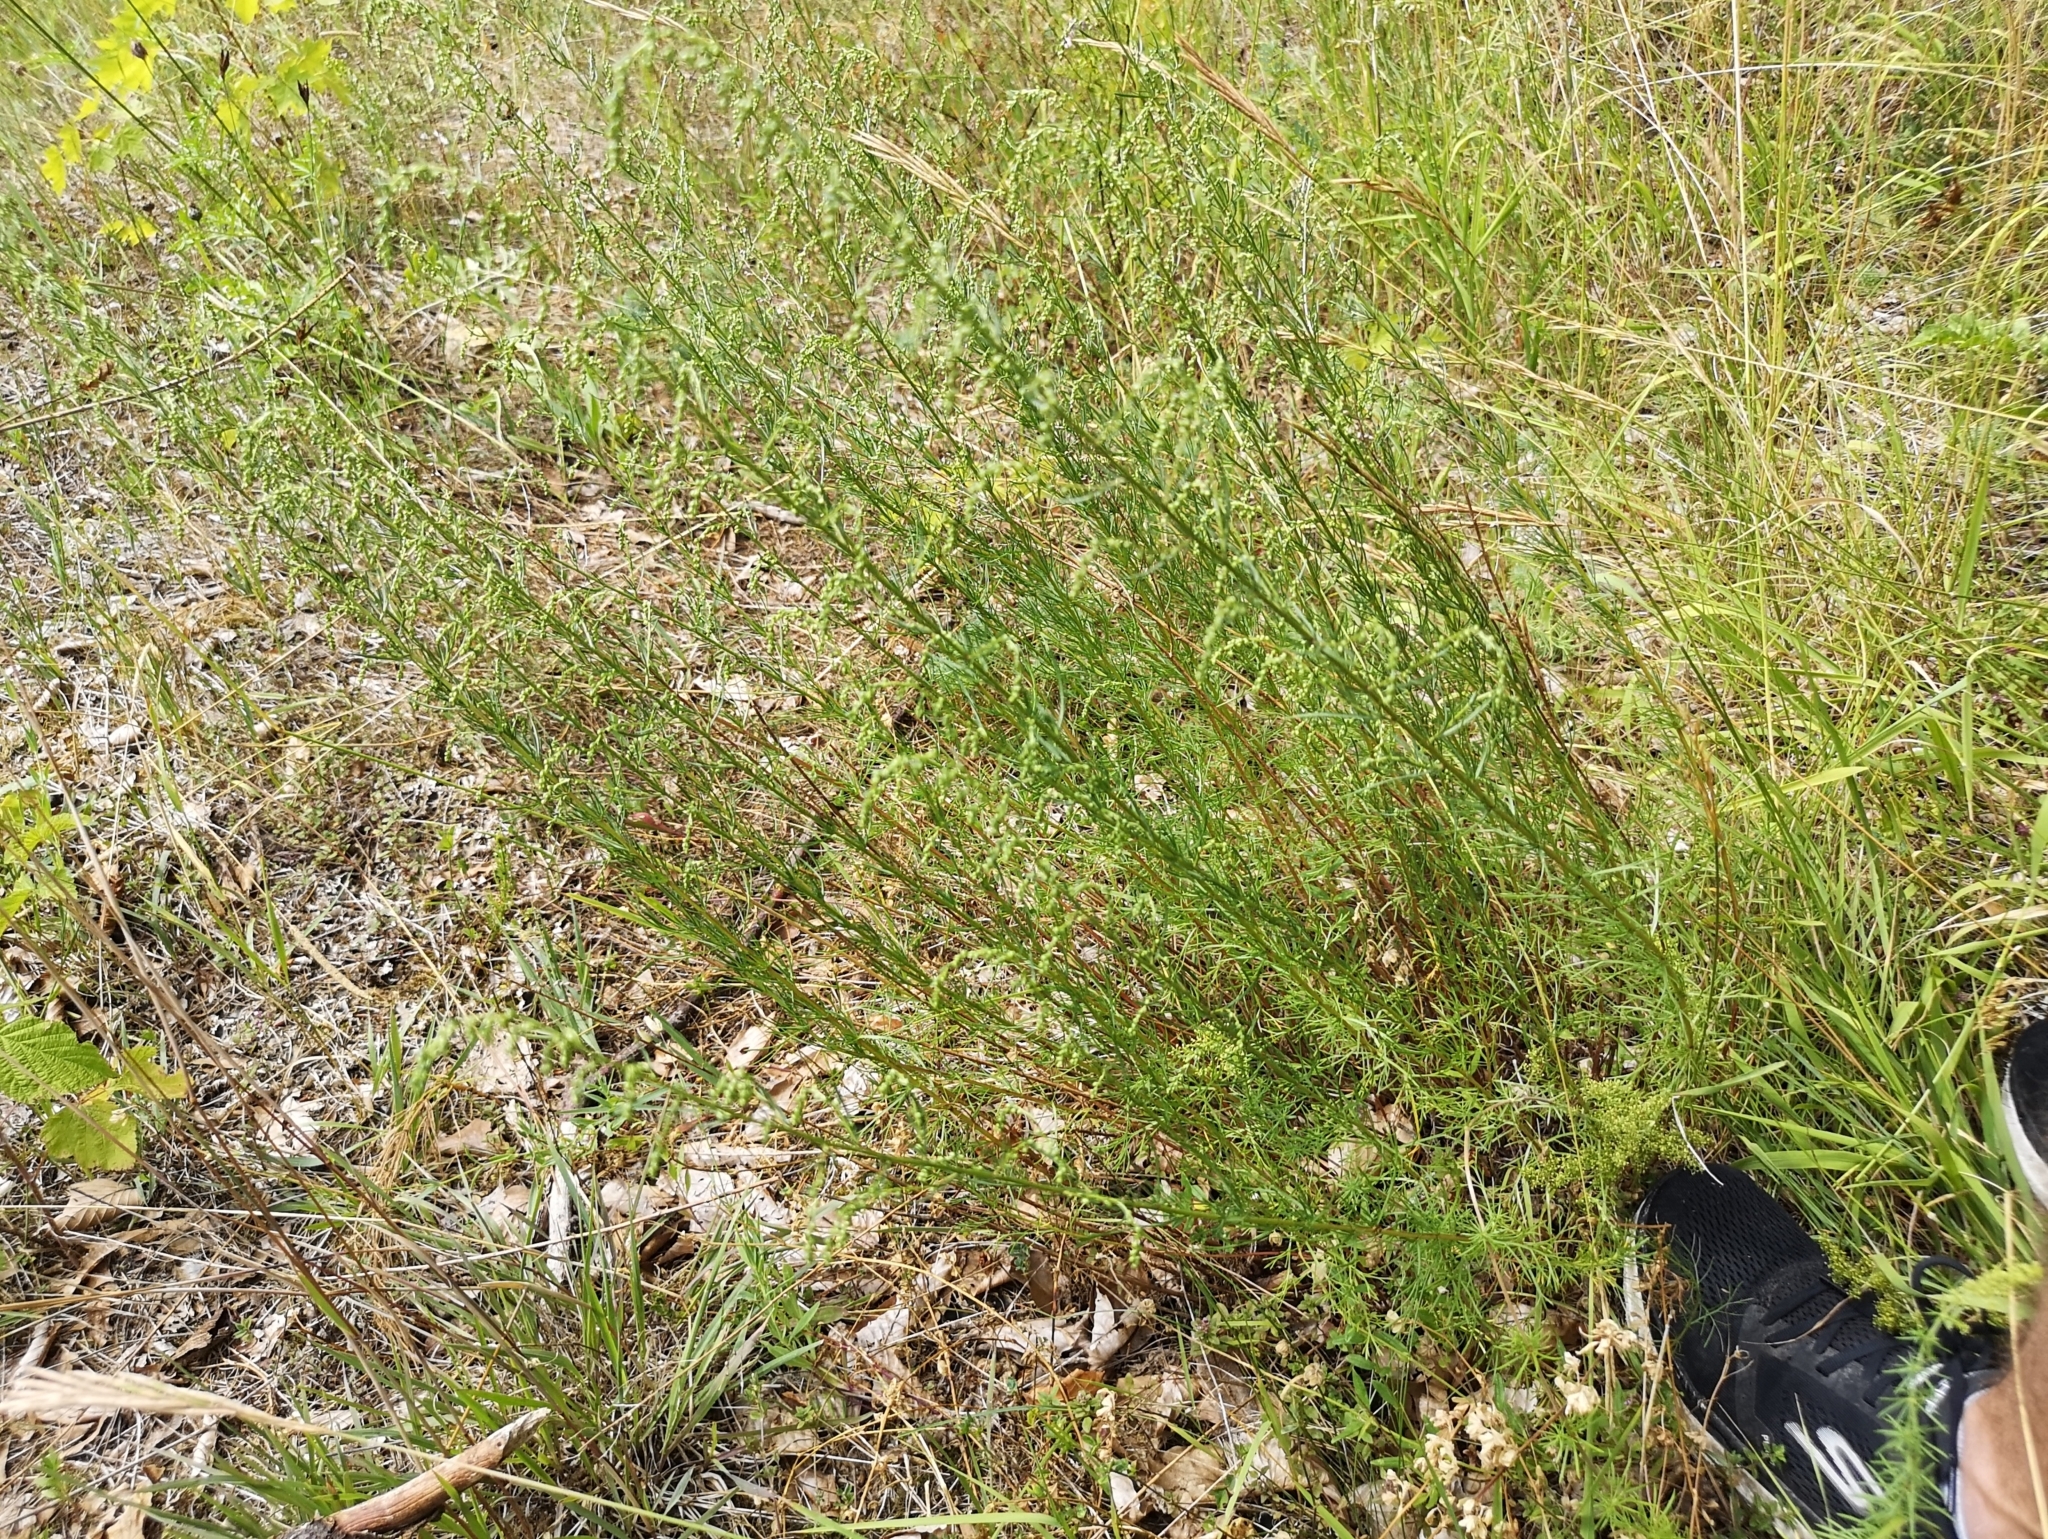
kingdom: Plantae
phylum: Tracheophyta
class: Magnoliopsida
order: Asterales
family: Asteraceae
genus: Artemisia
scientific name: Artemisia campestris
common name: Field wormwood
